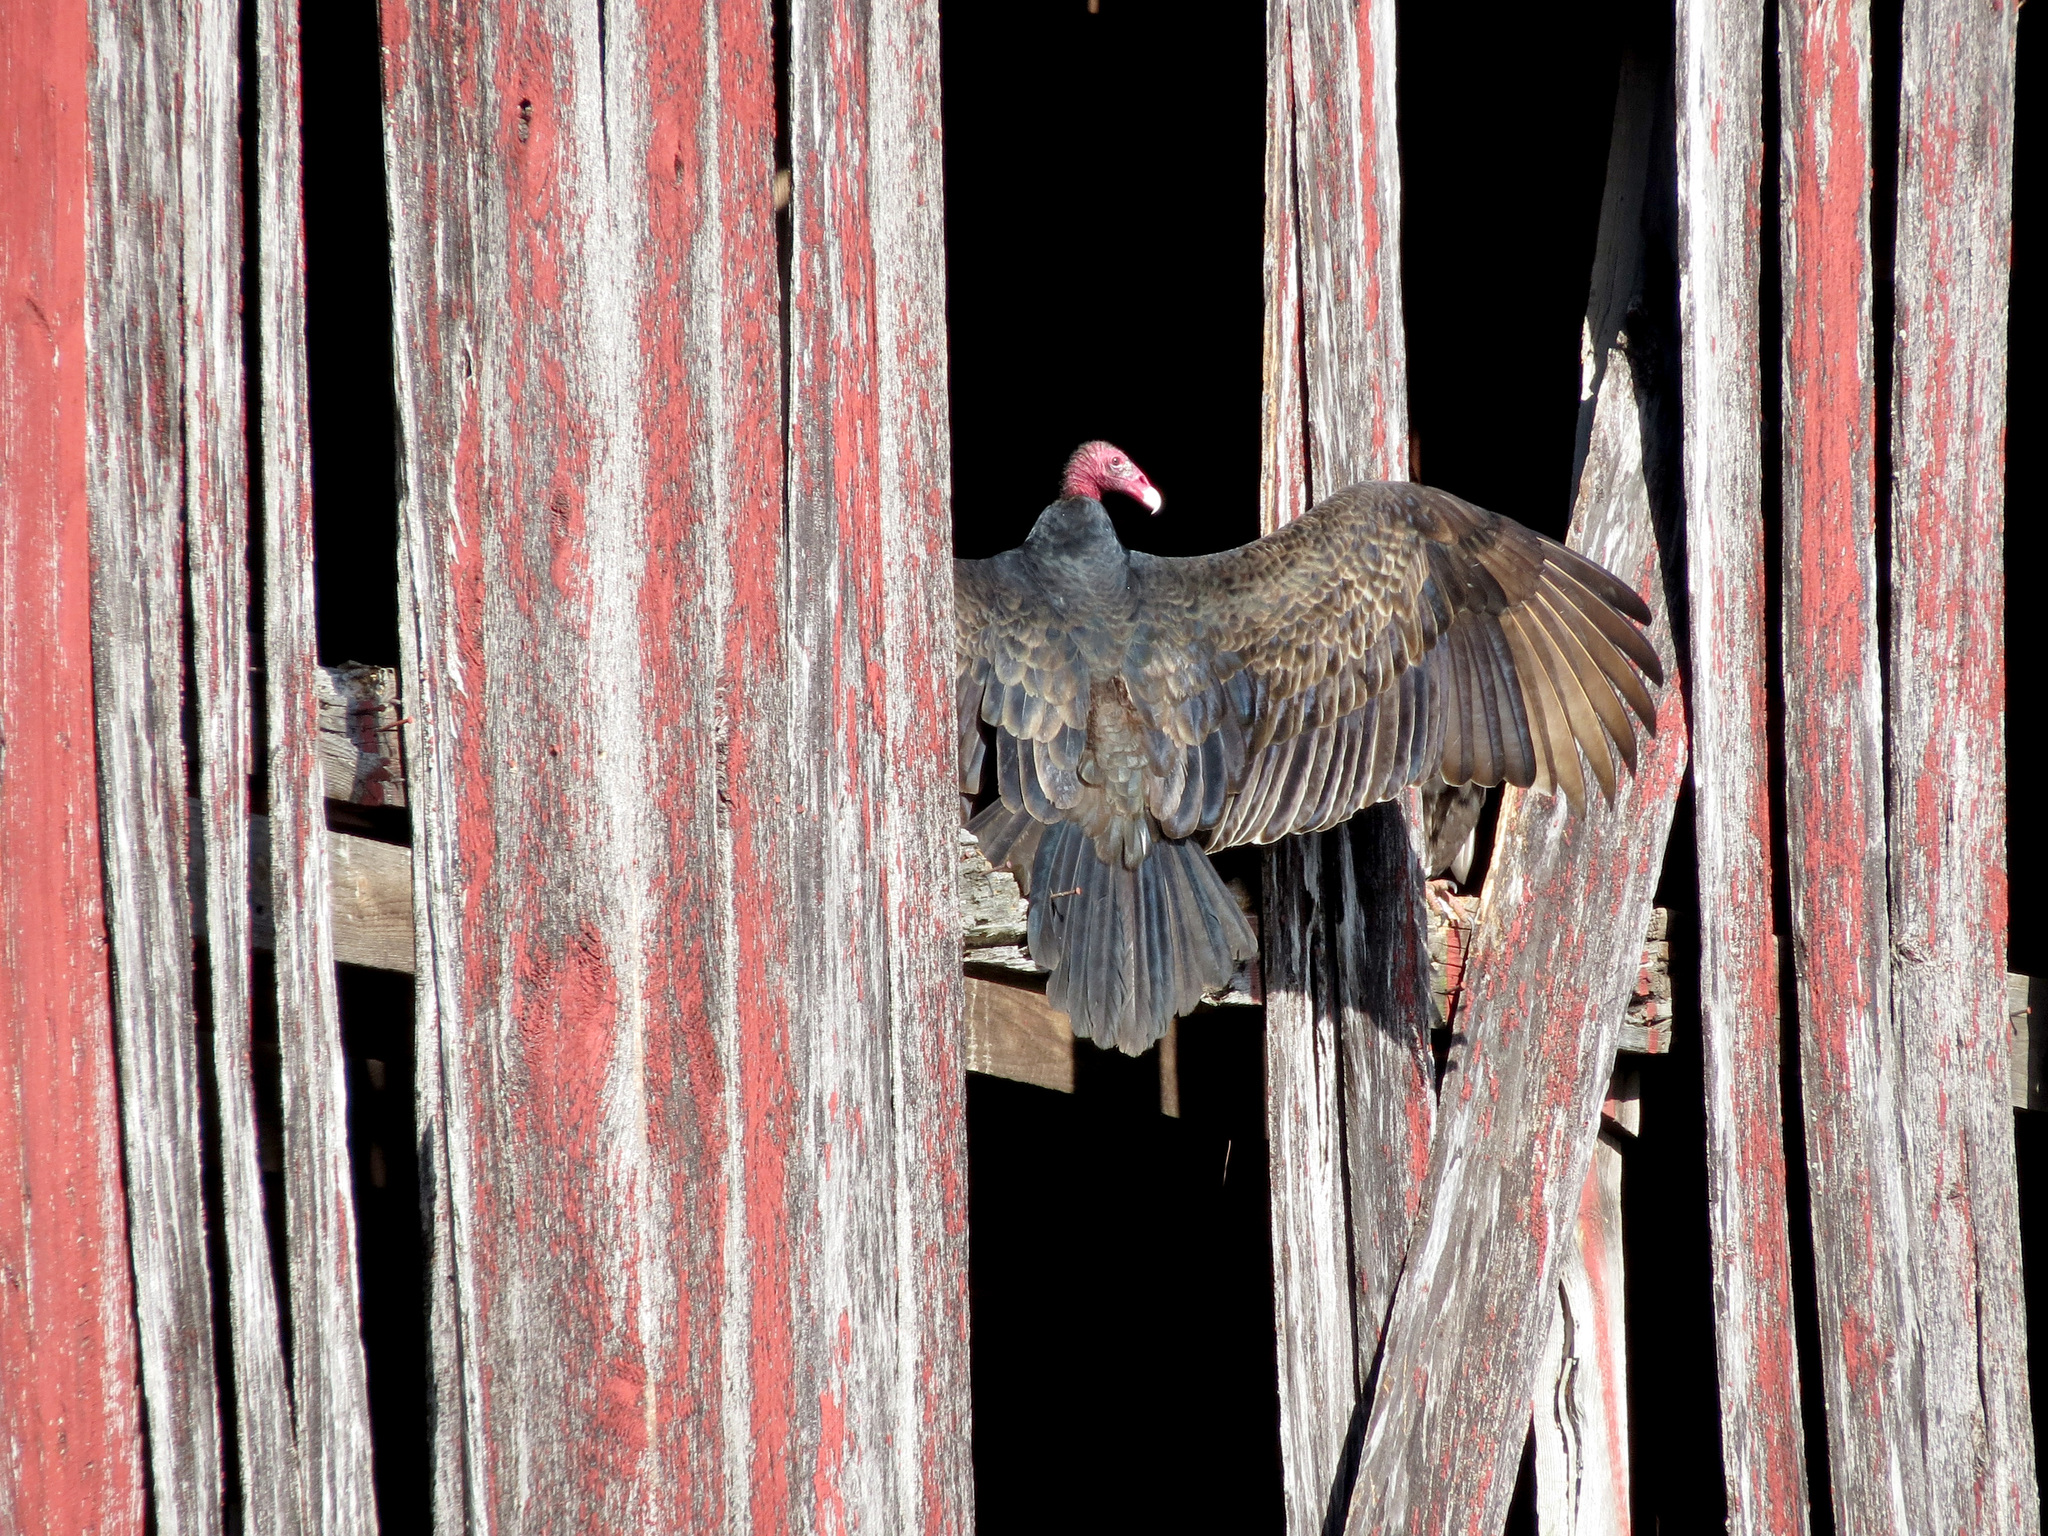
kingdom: Animalia
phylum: Chordata
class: Aves
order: Accipitriformes
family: Cathartidae
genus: Cathartes
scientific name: Cathartes aura
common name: Turkey vulture
